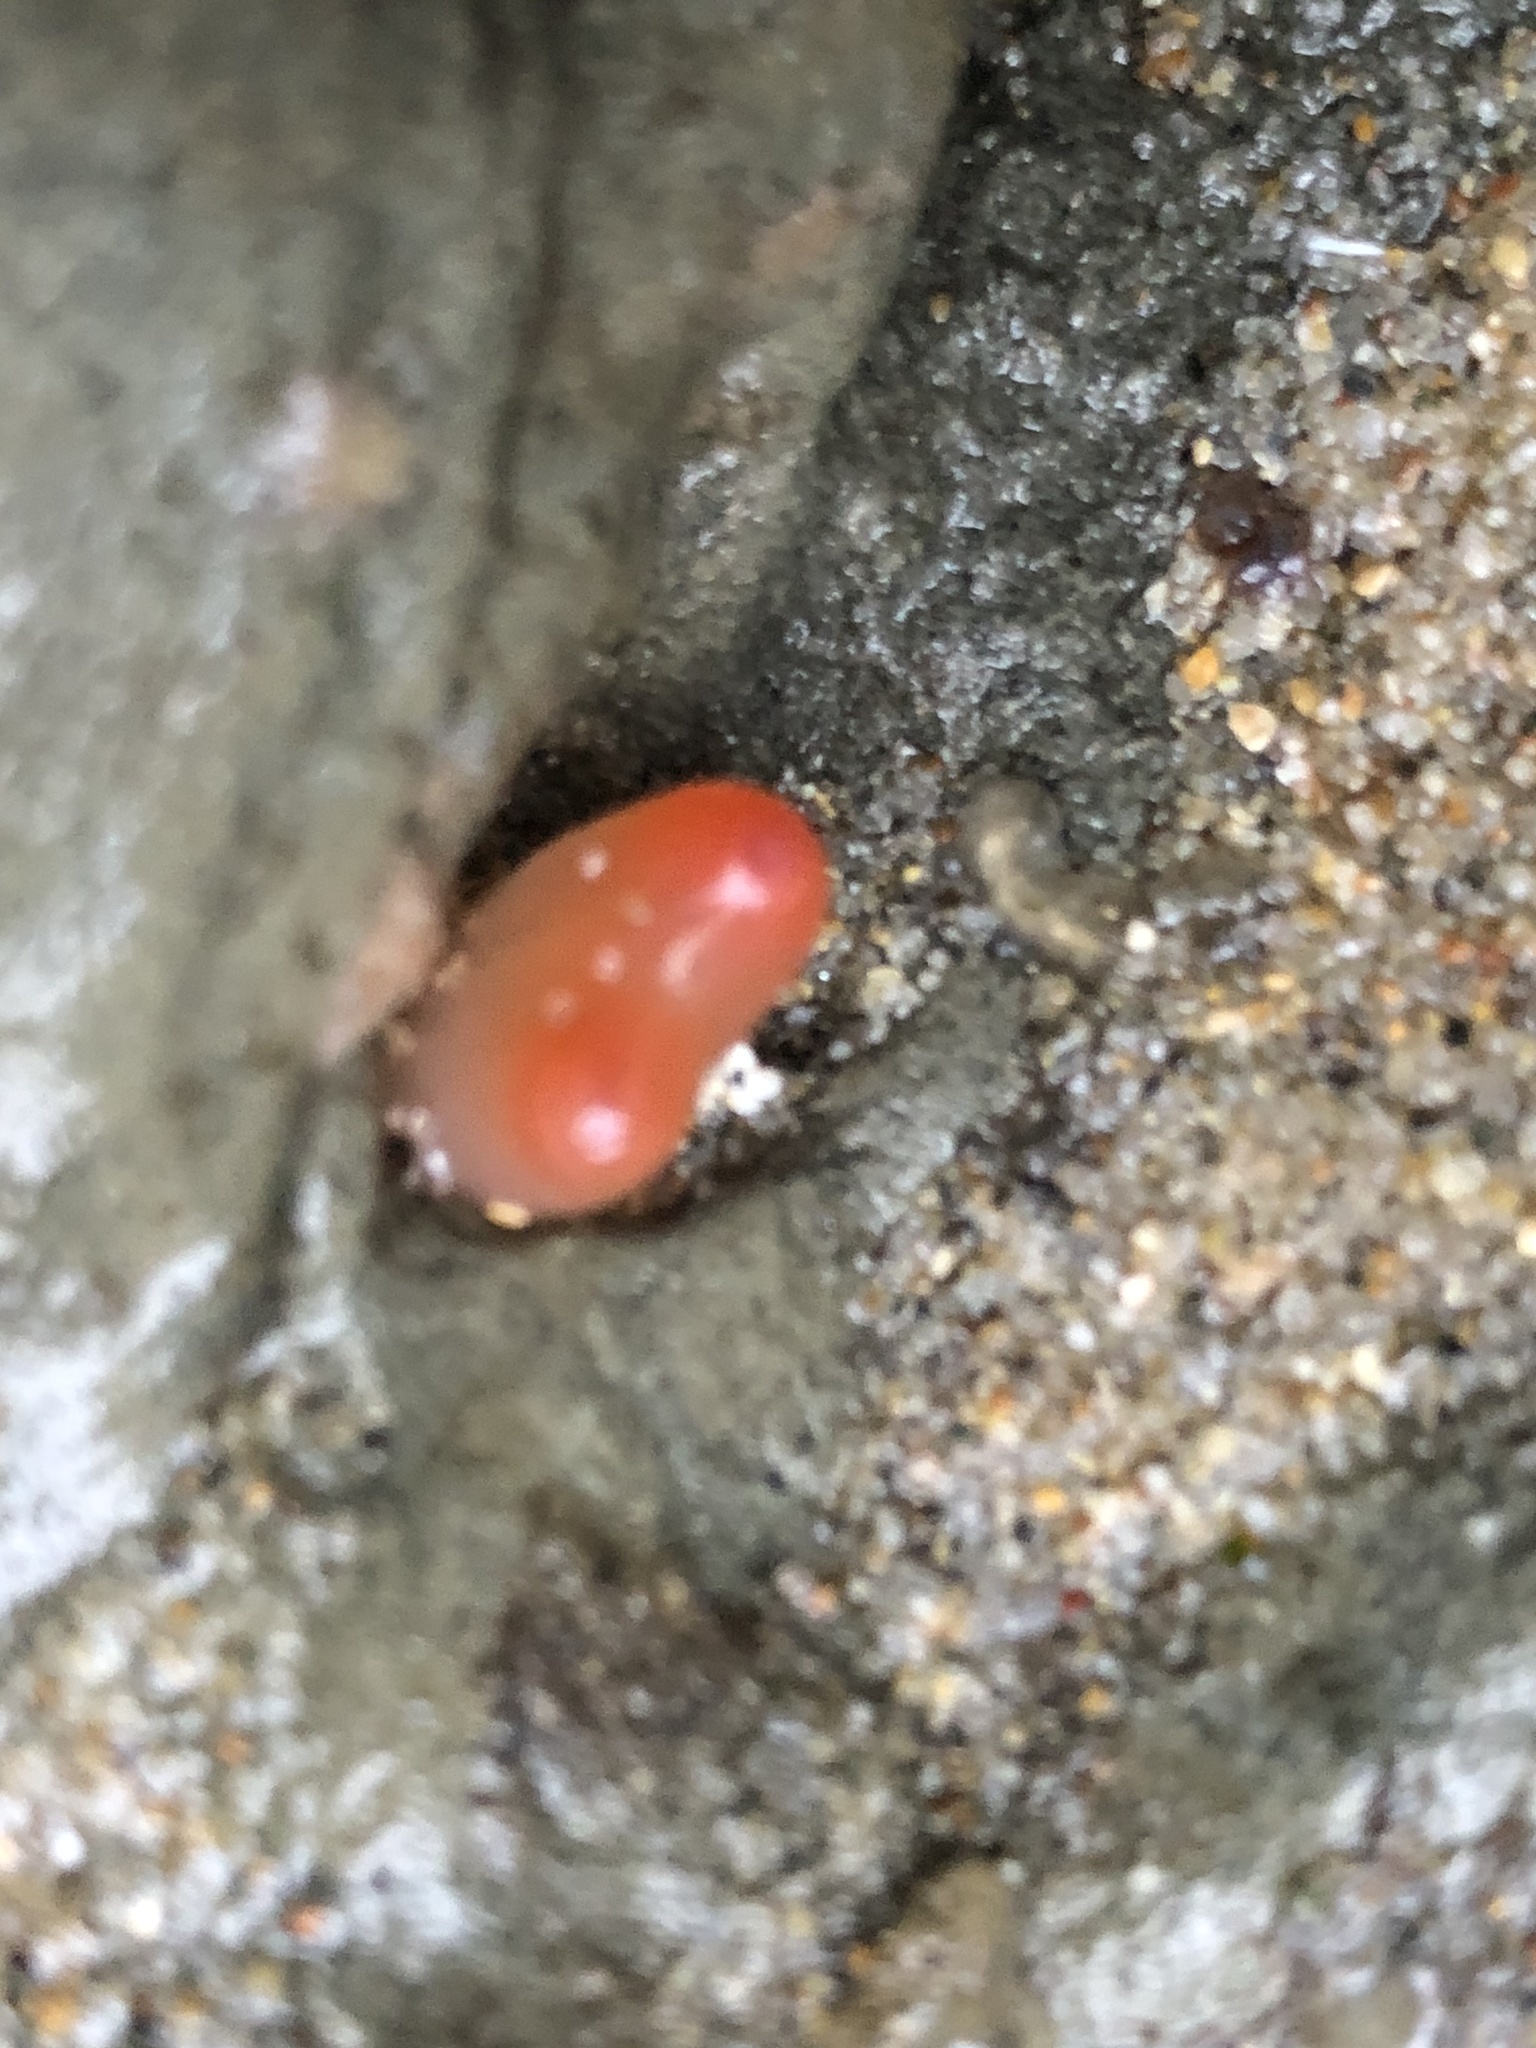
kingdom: Animalia
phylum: Mollusca
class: Bivalvia
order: Adapedonta
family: Hiatellidae
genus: Hiatella
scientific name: Hiatella arctica
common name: Arctic hiatella
